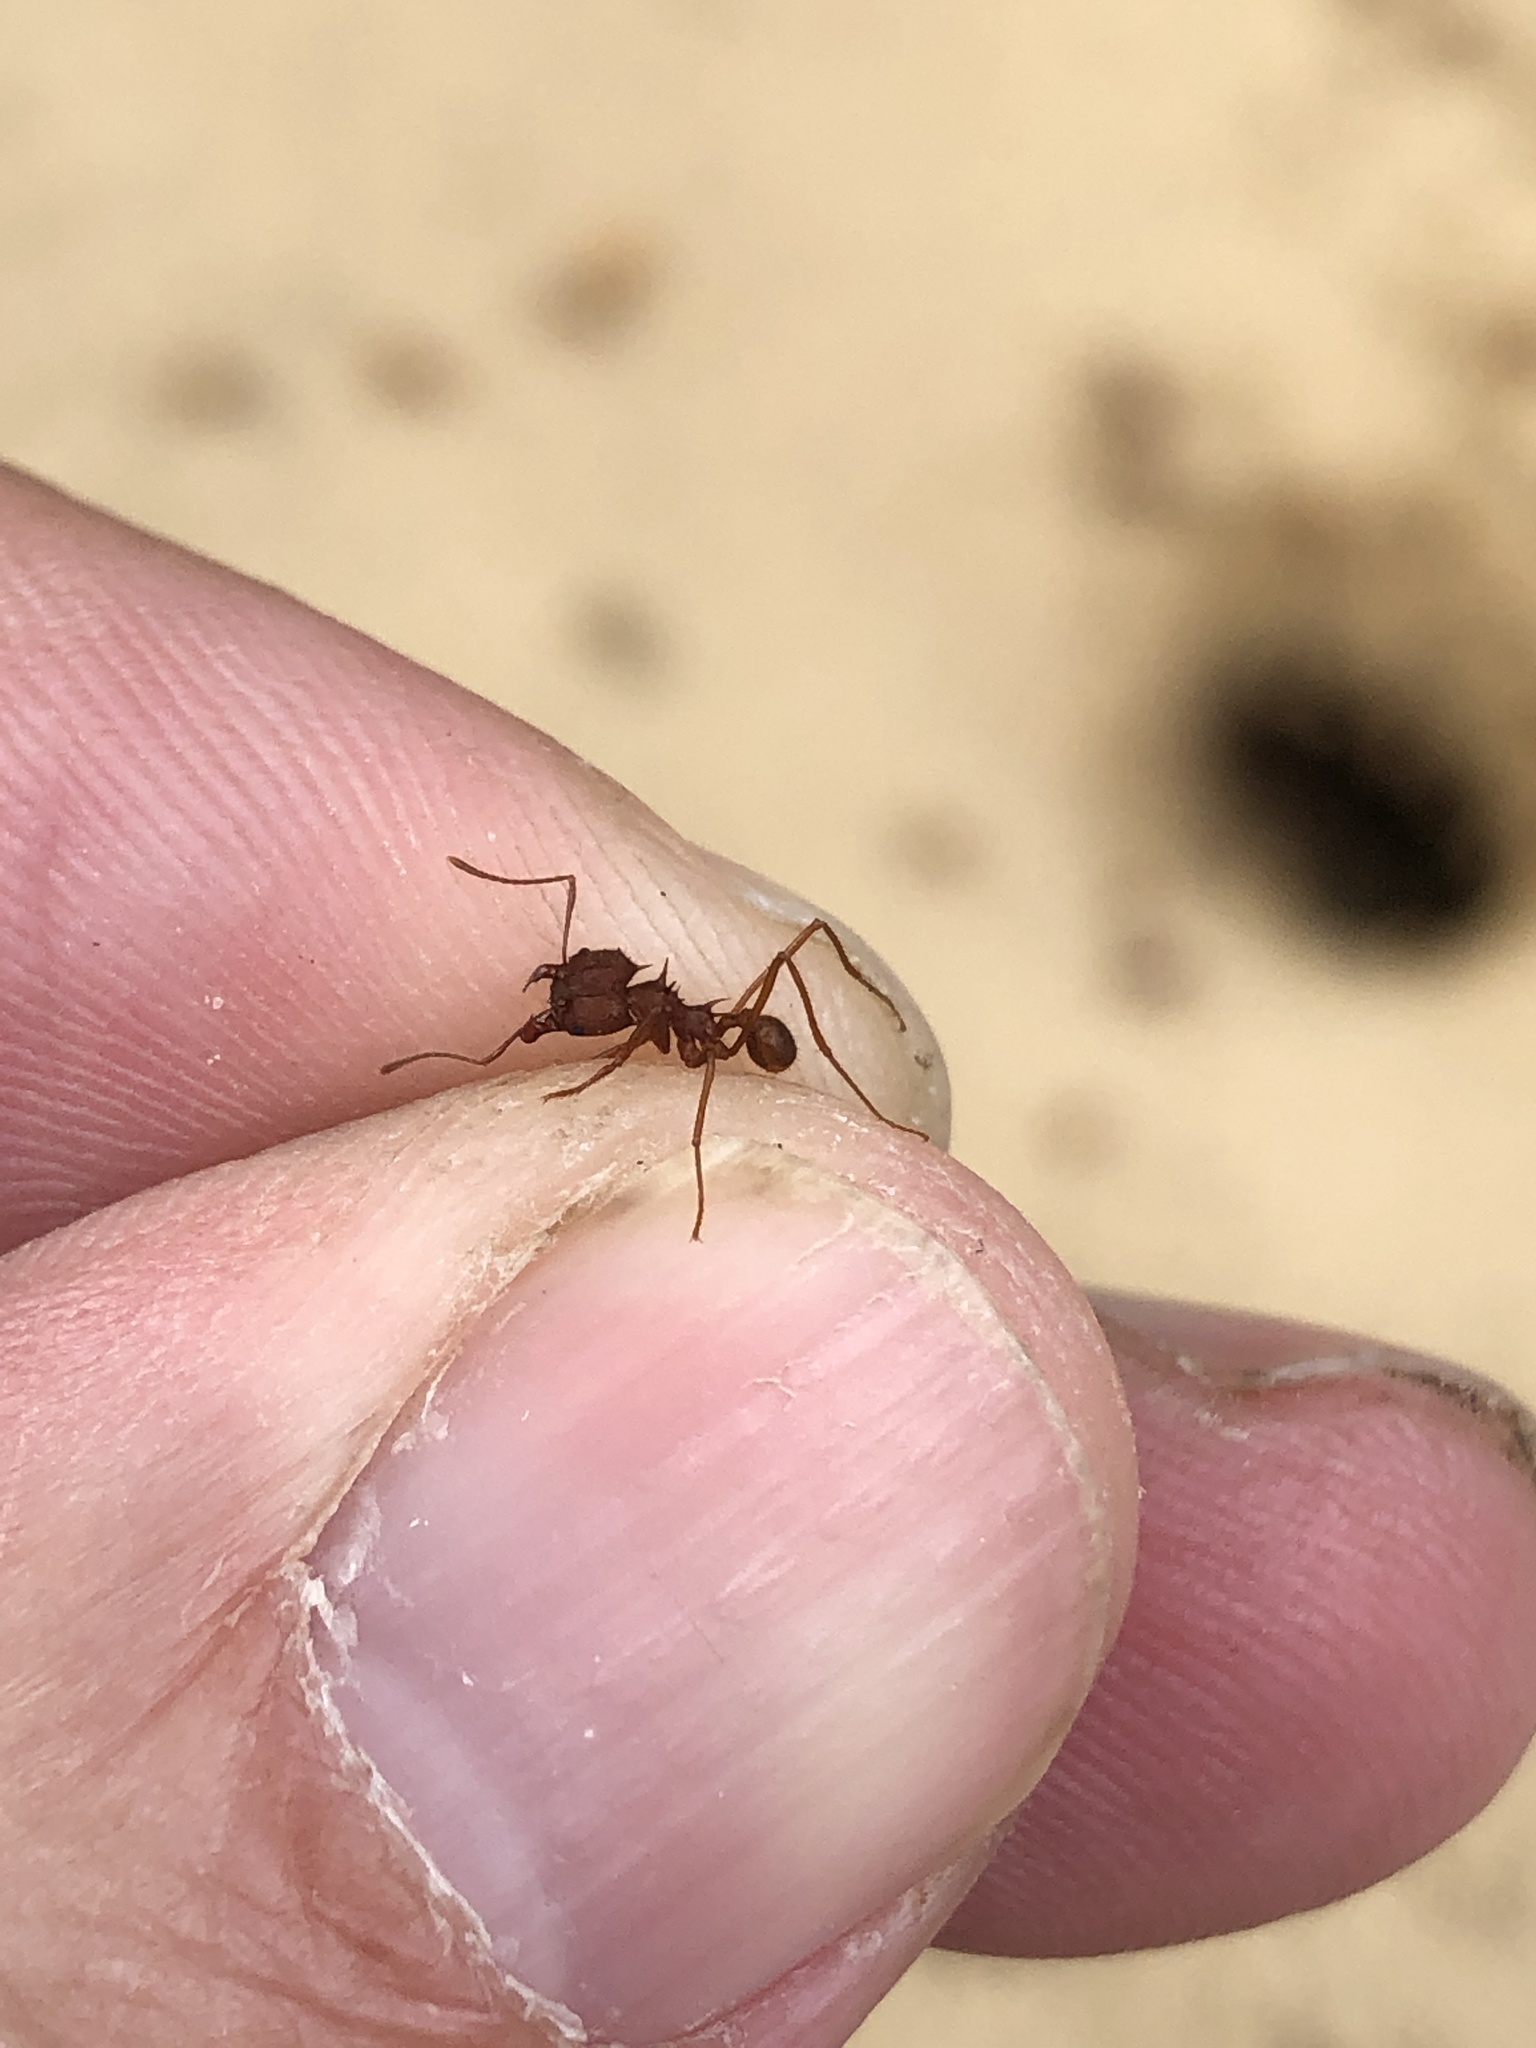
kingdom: Animalia
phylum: Arthropoda
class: Insecta
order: Hymenoptera
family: Formicidae
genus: Atta
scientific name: Atta texana
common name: Texas leafcutting ant
